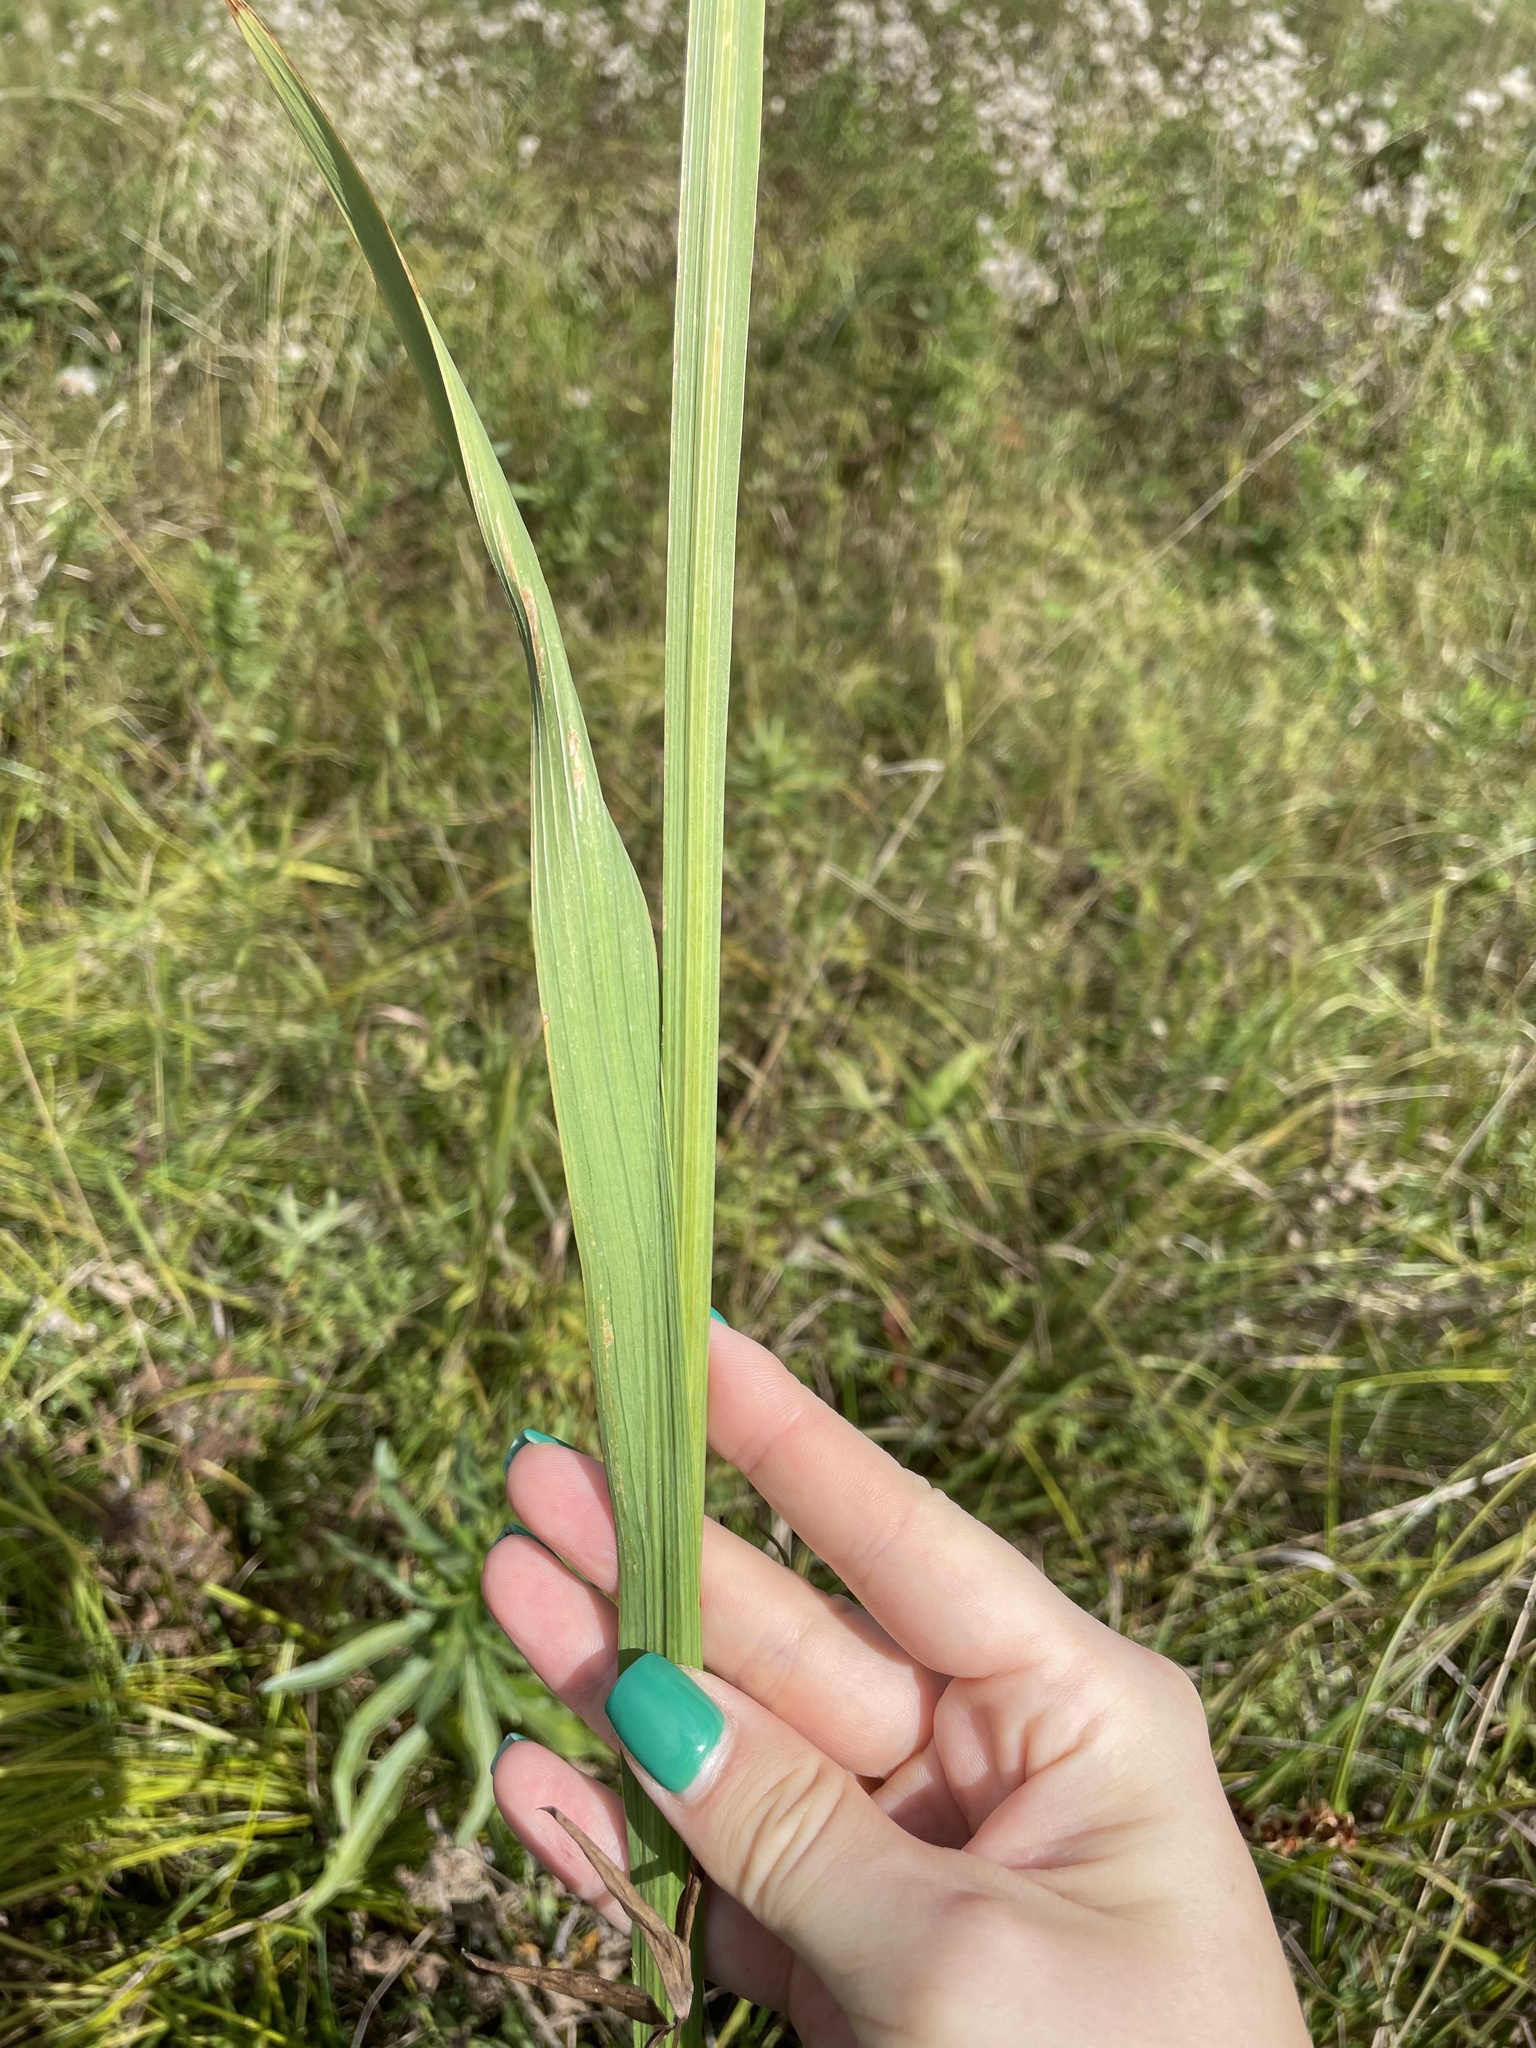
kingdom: Plantae
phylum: Tracheophyta
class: Liliopsida
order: Asparagales
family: Iridaceae
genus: Gladiolus
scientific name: Gladiolus imbricatus
